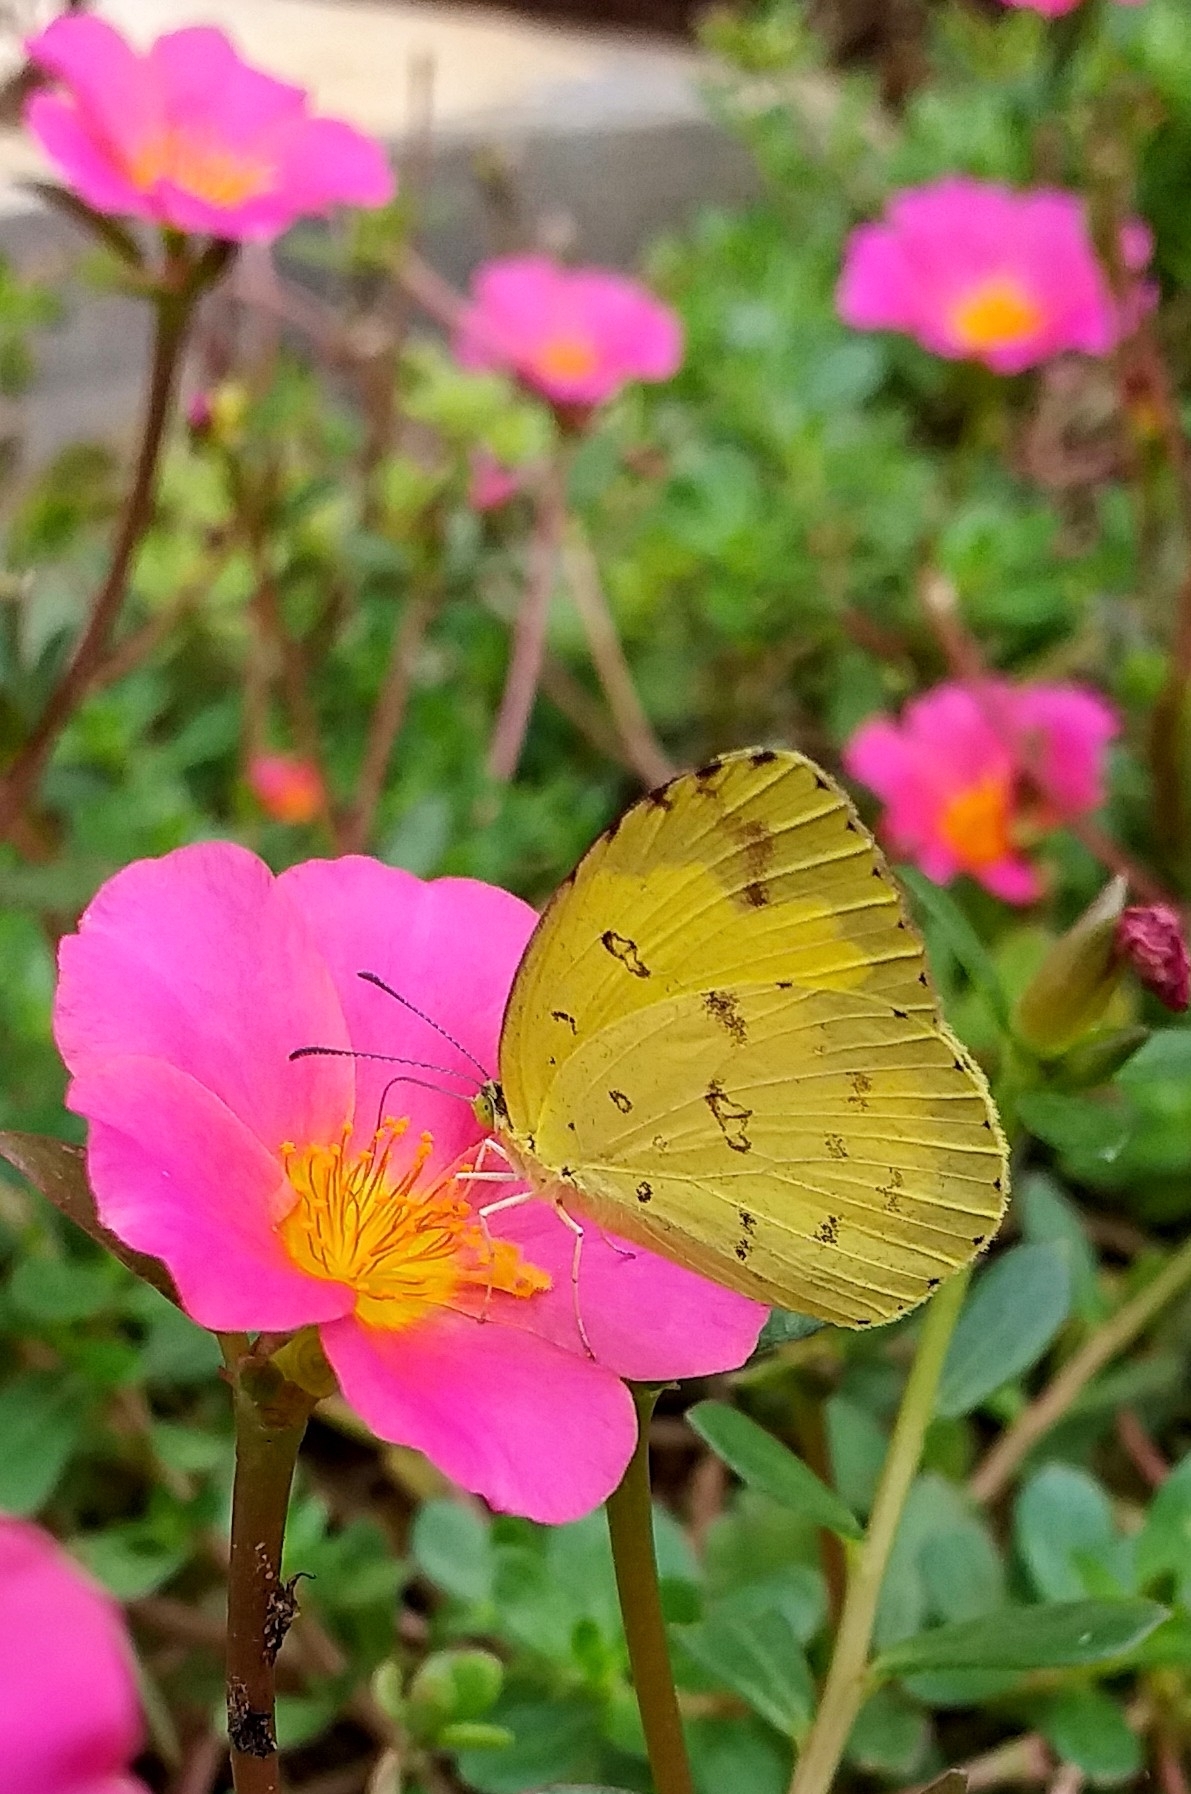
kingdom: Animalia
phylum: Arthropoda
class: Insecta
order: Lepidoptera
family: Pieridae
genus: Eurema
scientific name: Eurema hecabe
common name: Pale grass yellow
